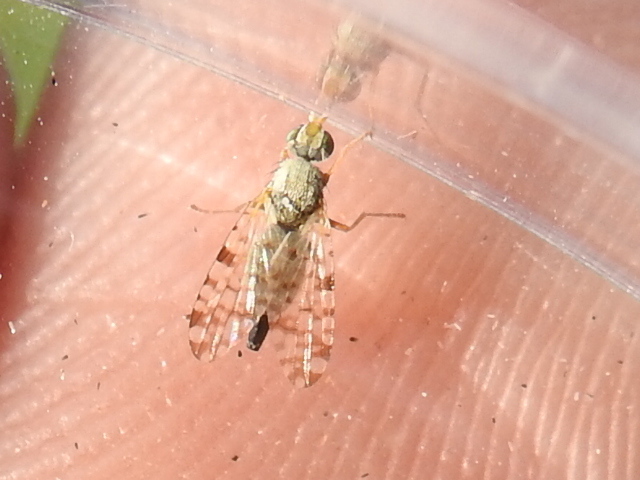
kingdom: Animalia
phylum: Arthropoda
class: Insecta
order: Diptera
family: Tephritidae
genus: Dioxyna
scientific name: Dioxyna picciola
